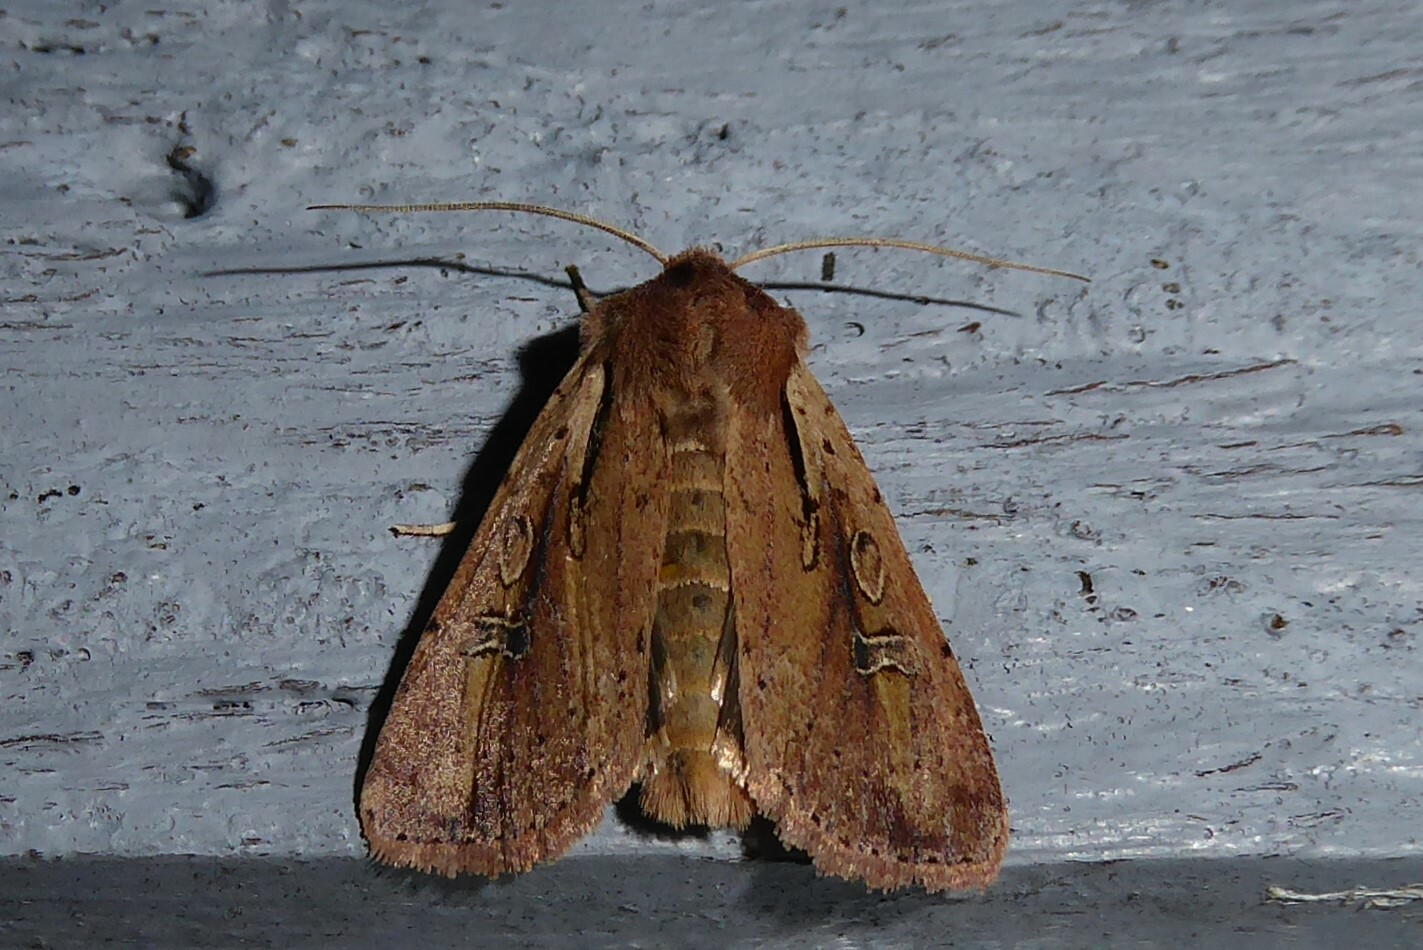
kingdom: Animalia
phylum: Arthropoda
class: Insecta
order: Lepidoptera
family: Noctuidae
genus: Ichneutica
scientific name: Ichneutica atristriga
